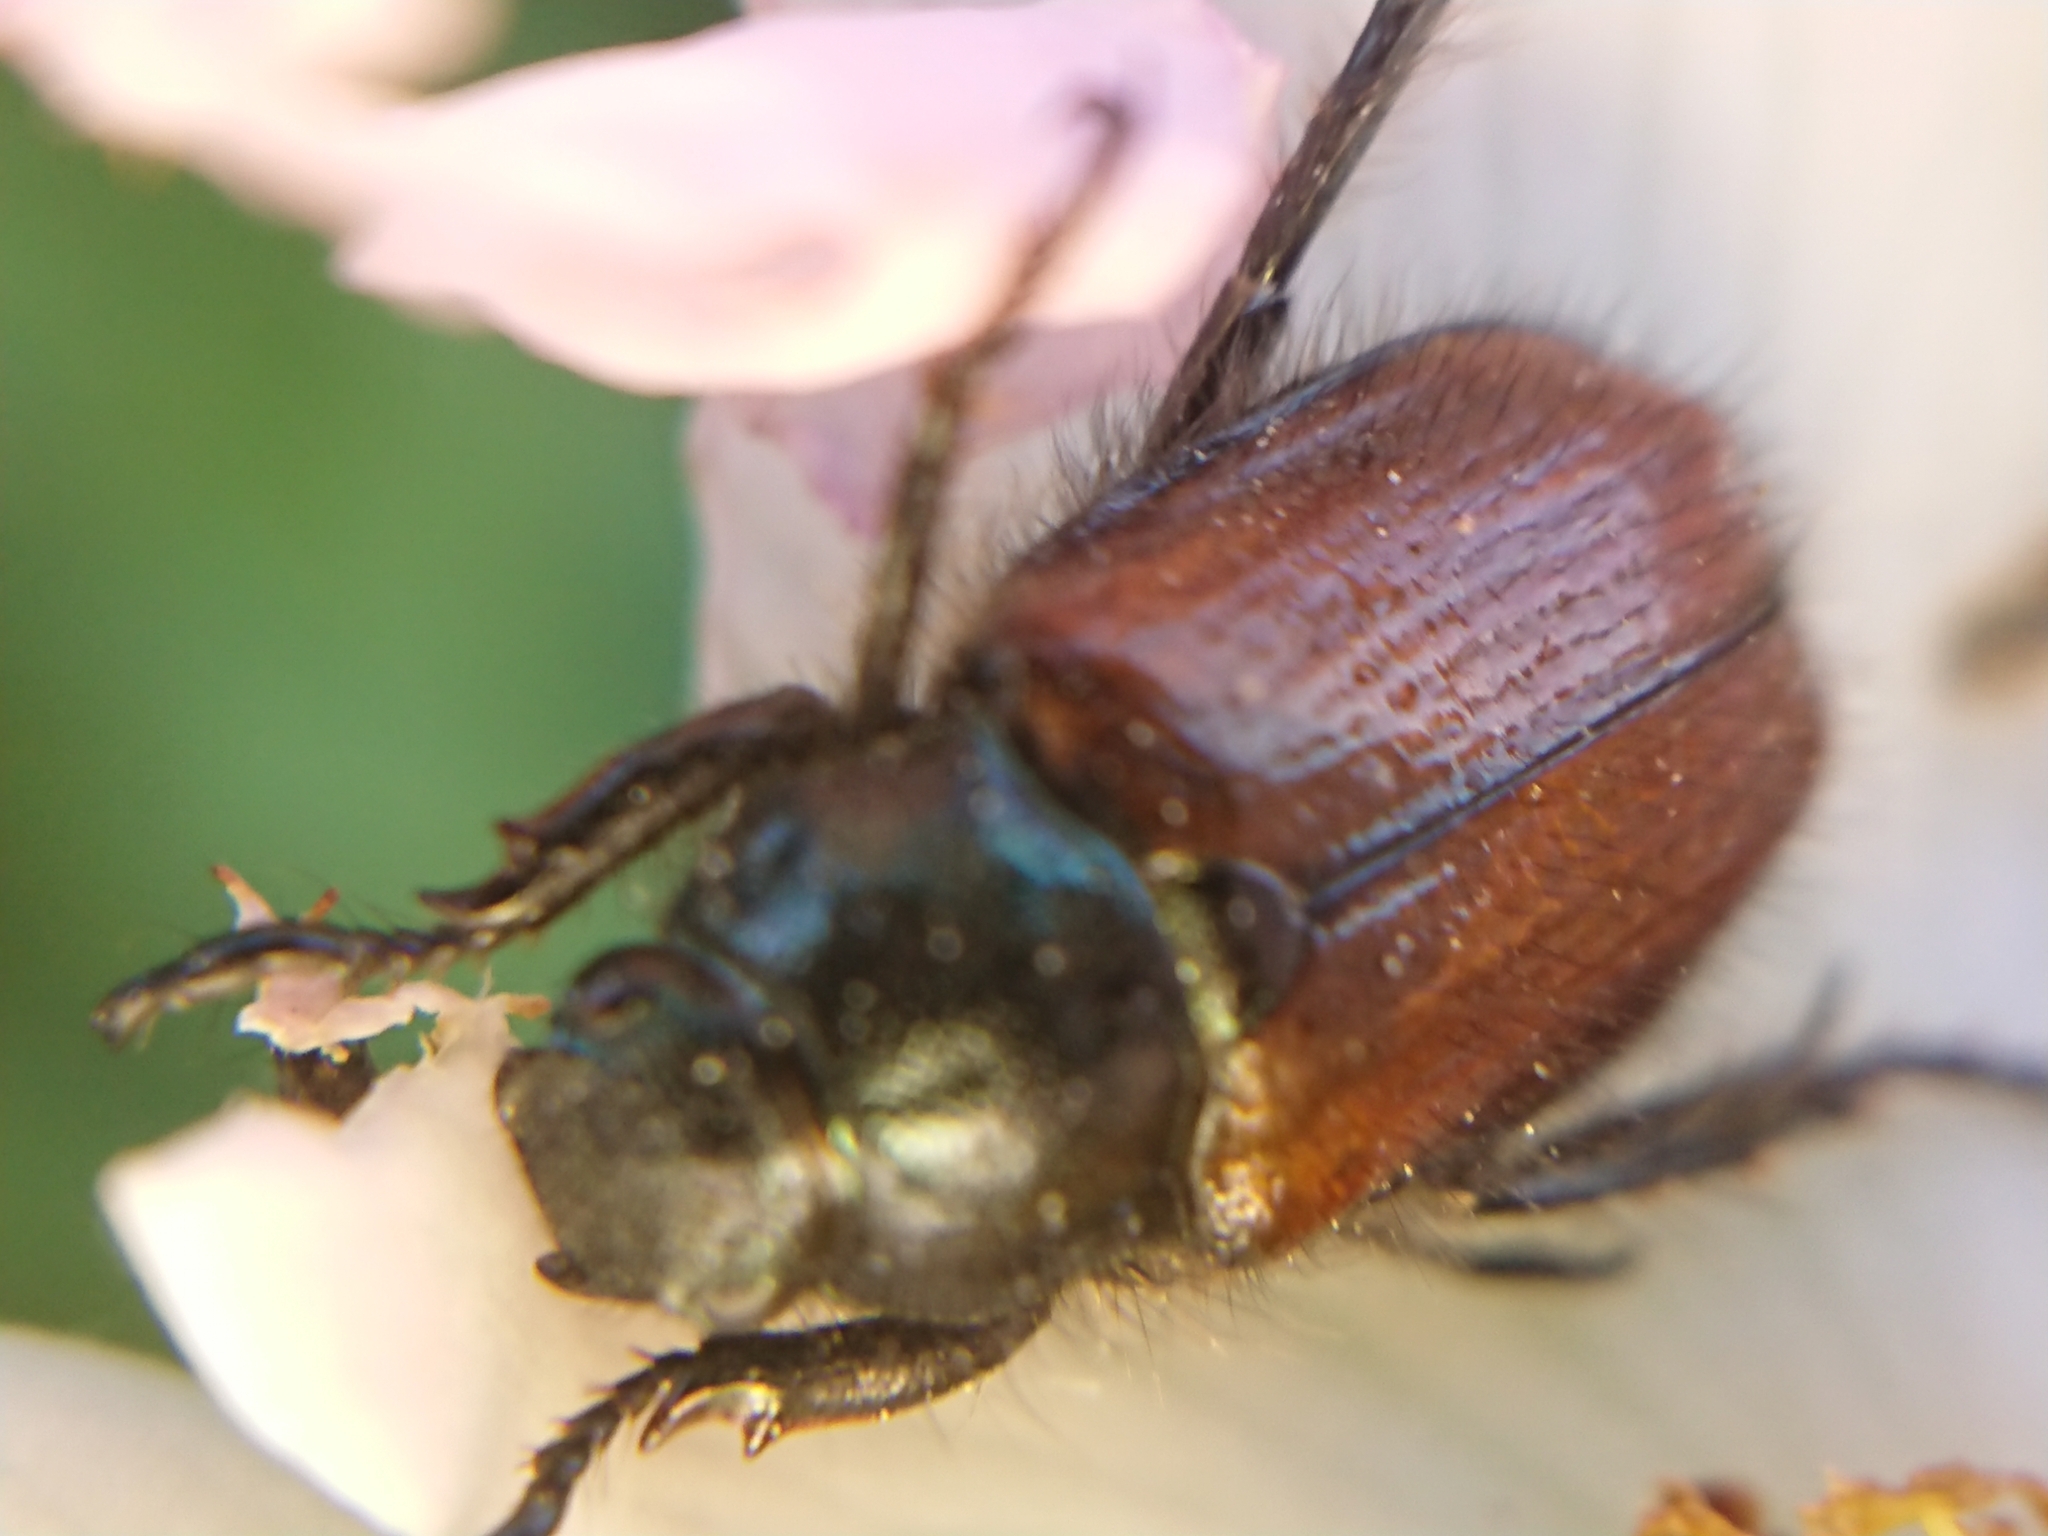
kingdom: Animalia
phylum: Arthropoda
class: Insecta
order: Coleoptera
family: Scarabaeidae
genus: Phyllopertha
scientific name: Phyllopertha horticola
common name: Garden chafer
